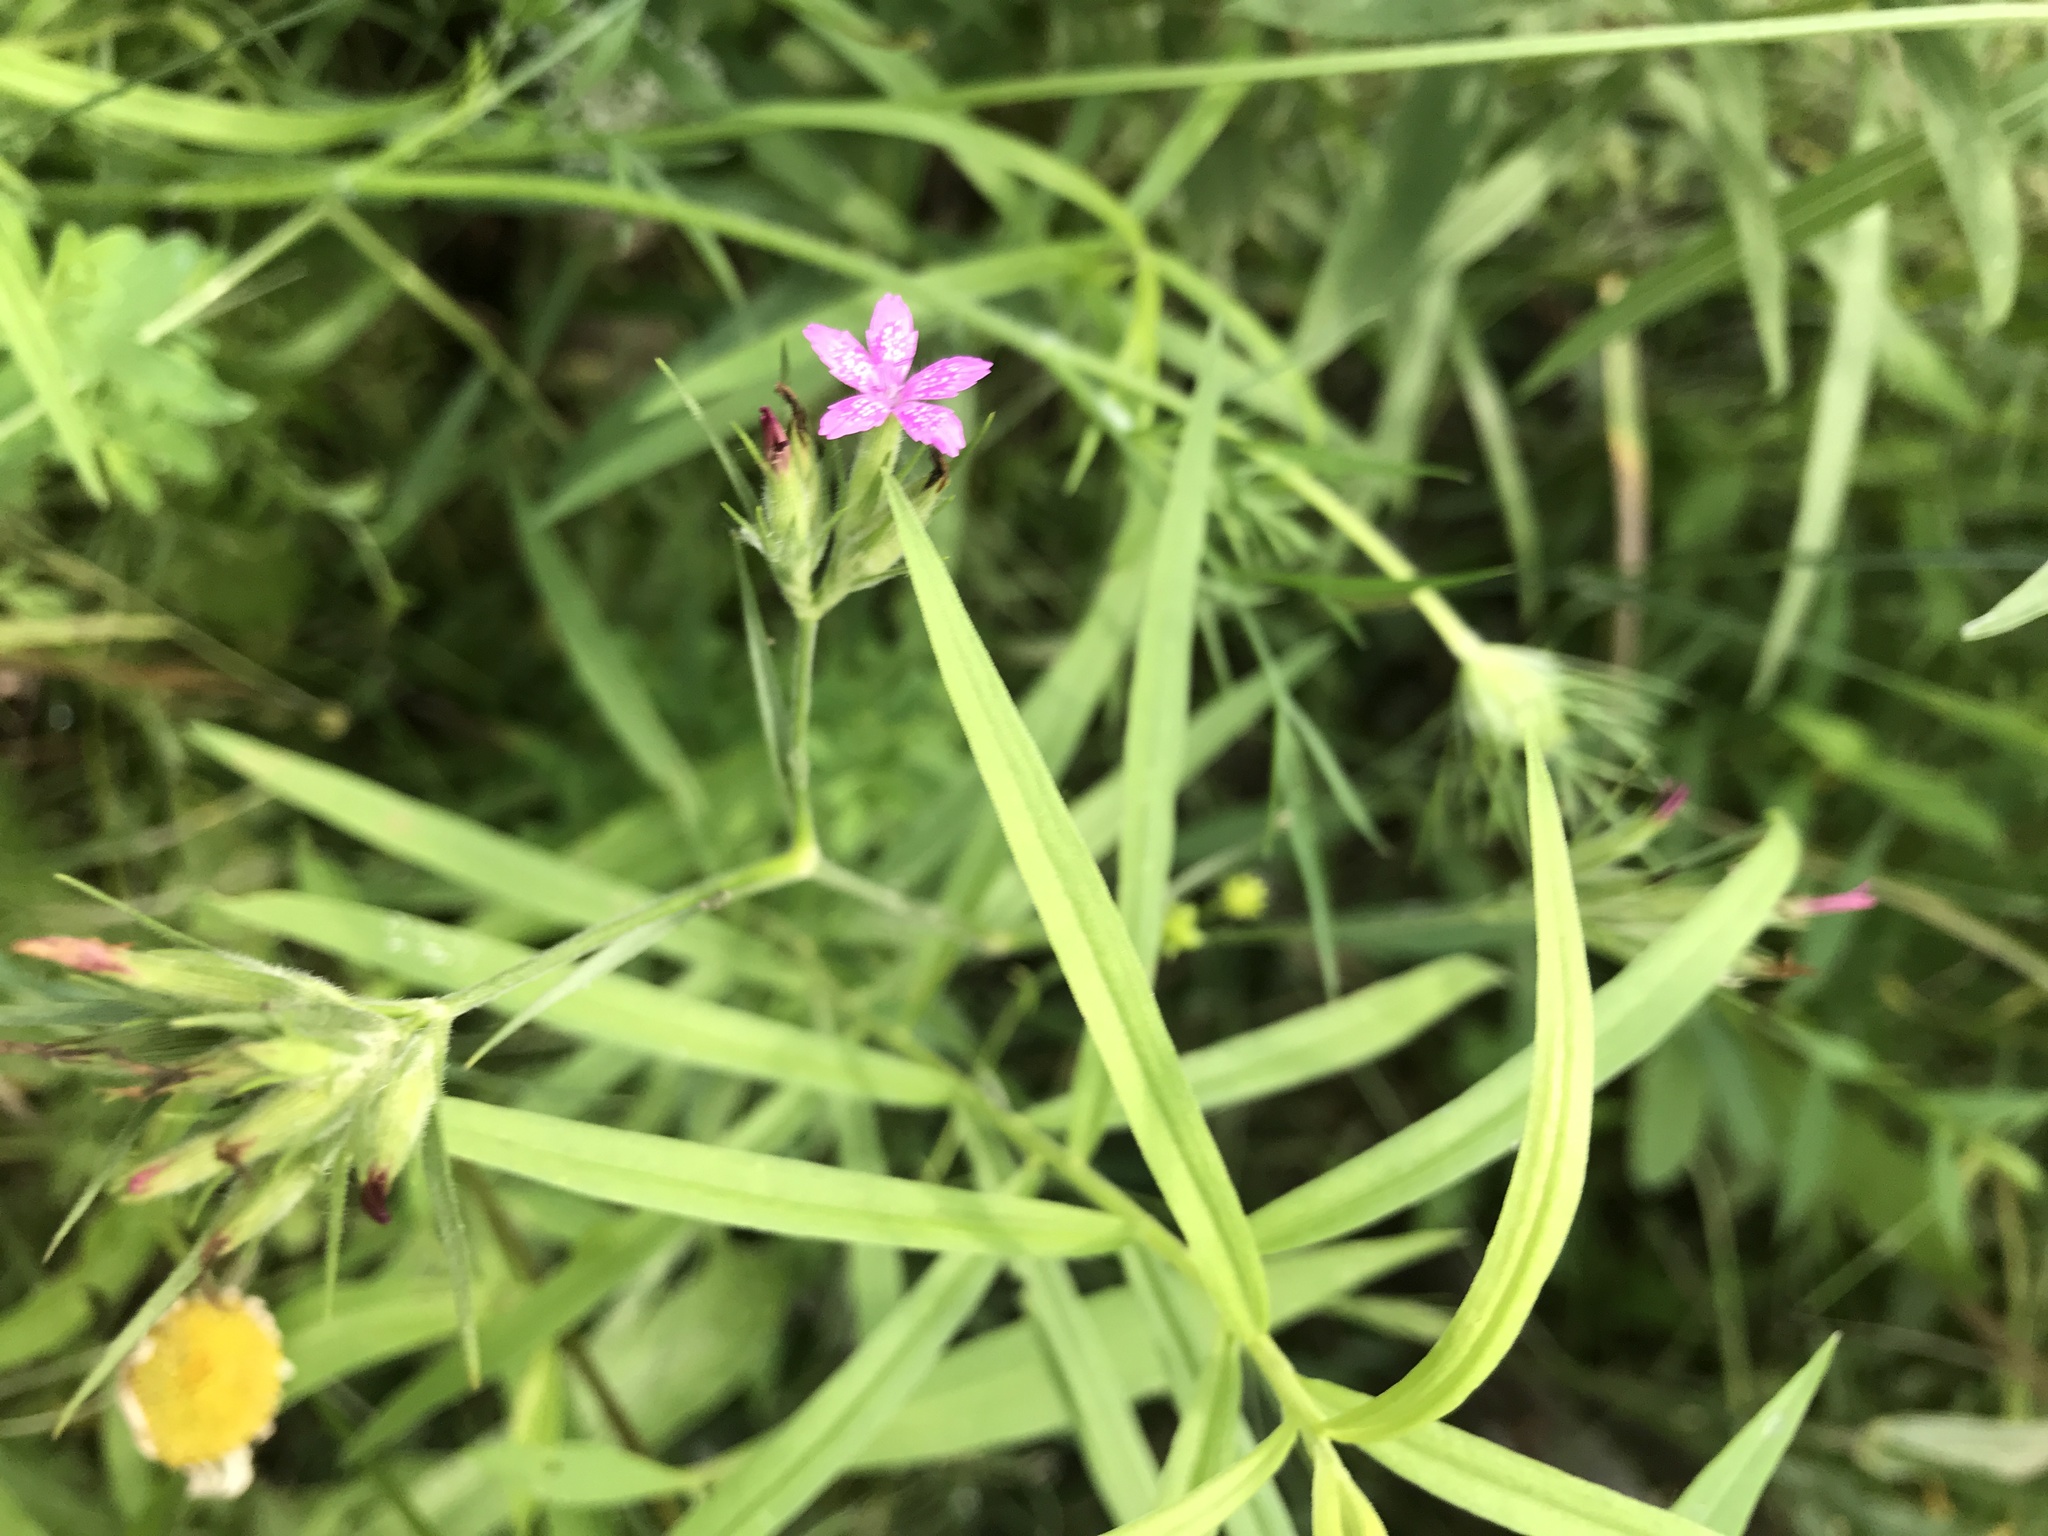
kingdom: Plantae
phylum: Tracheophyta
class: Magnoliopsida
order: Caryophyllales
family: Caryophyllaceae
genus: Dianthus
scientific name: Dianthus armeria
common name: Deptford pink
